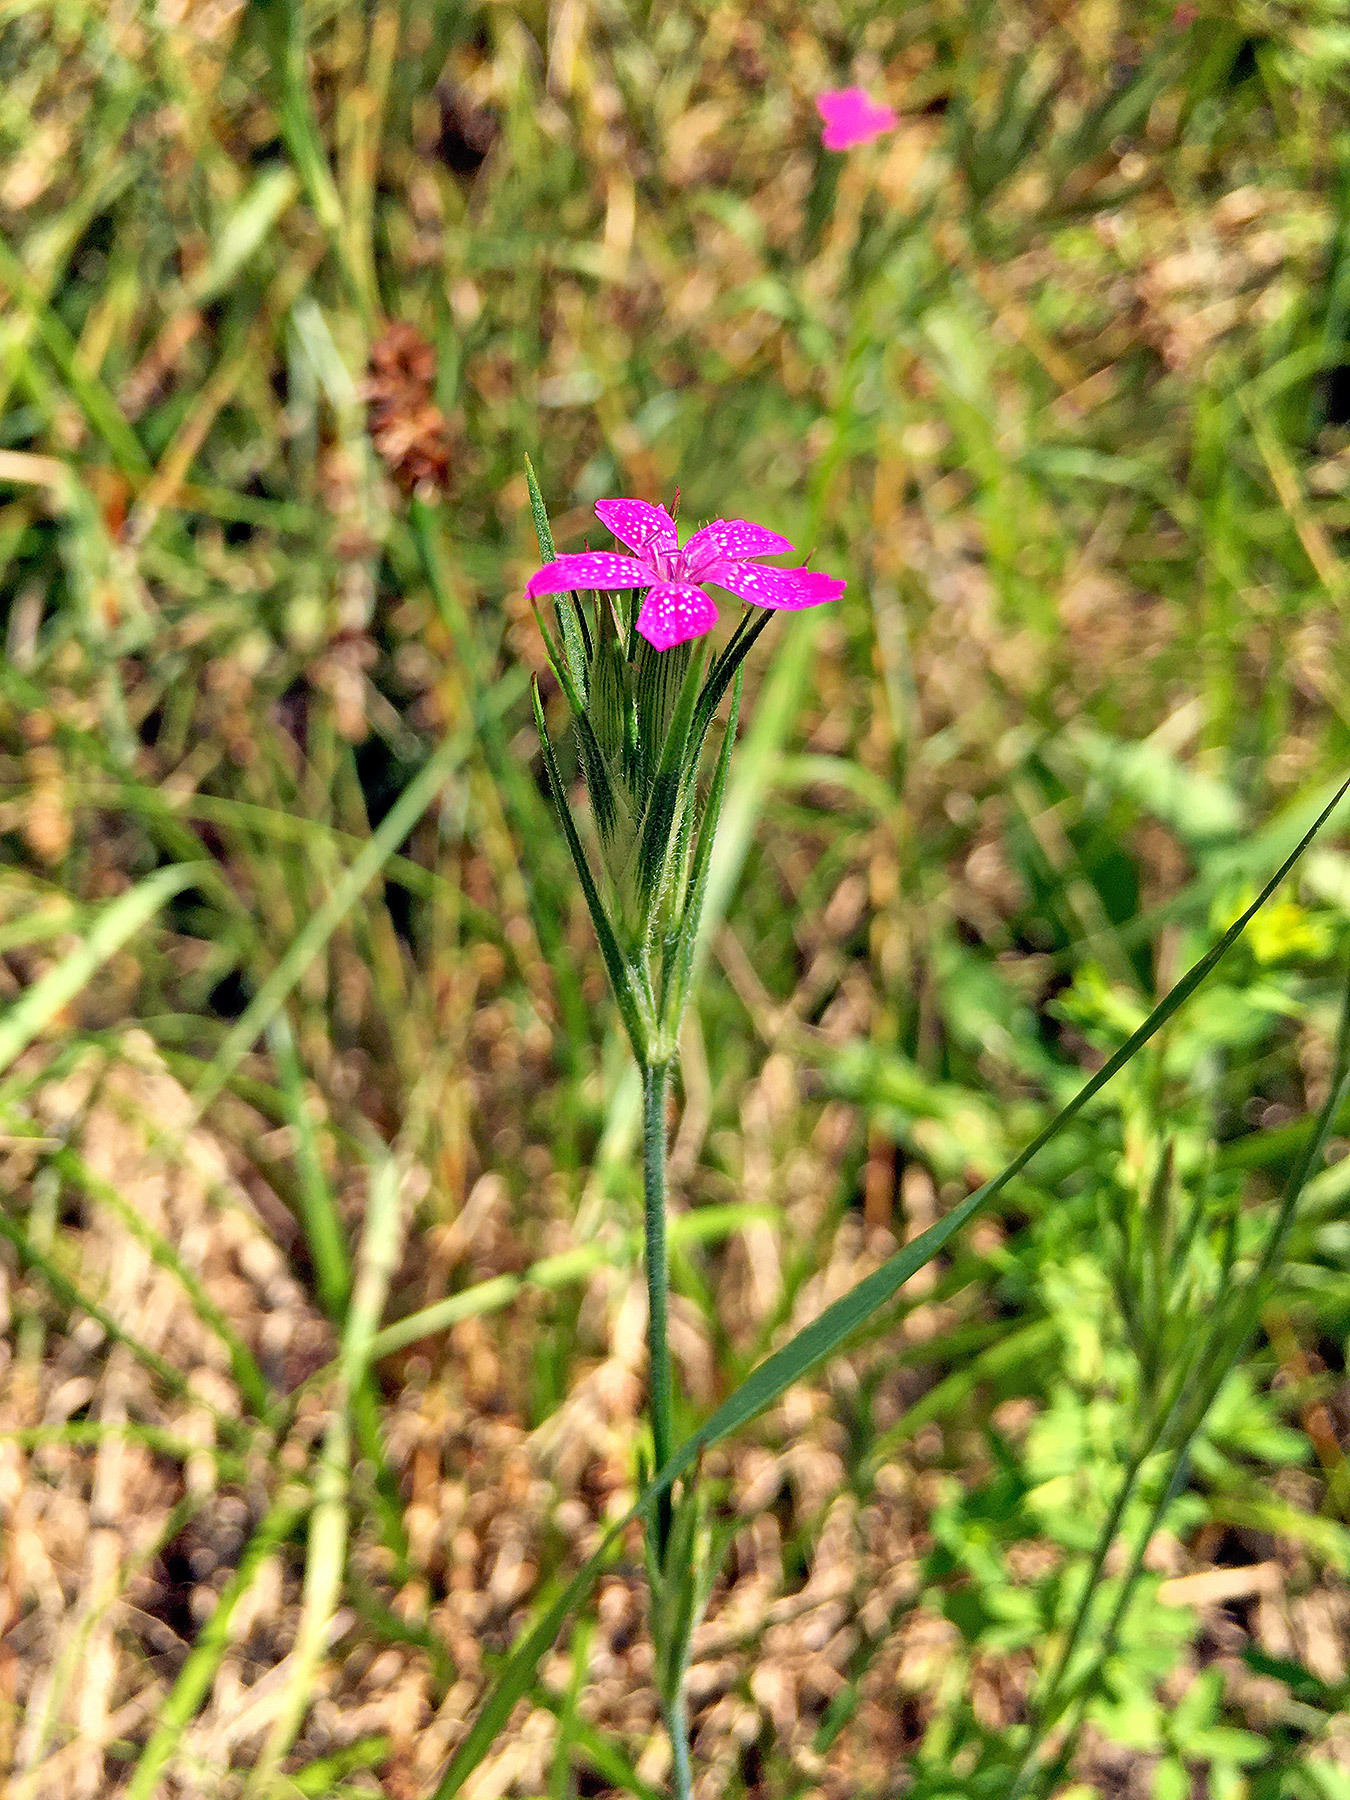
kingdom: Plantae
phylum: Tracheophyta
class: Magnoliopsida
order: Caryophyllales
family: Caryophyllaceae
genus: Dianthus
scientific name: Dianthus armeria
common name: Deptford pink
